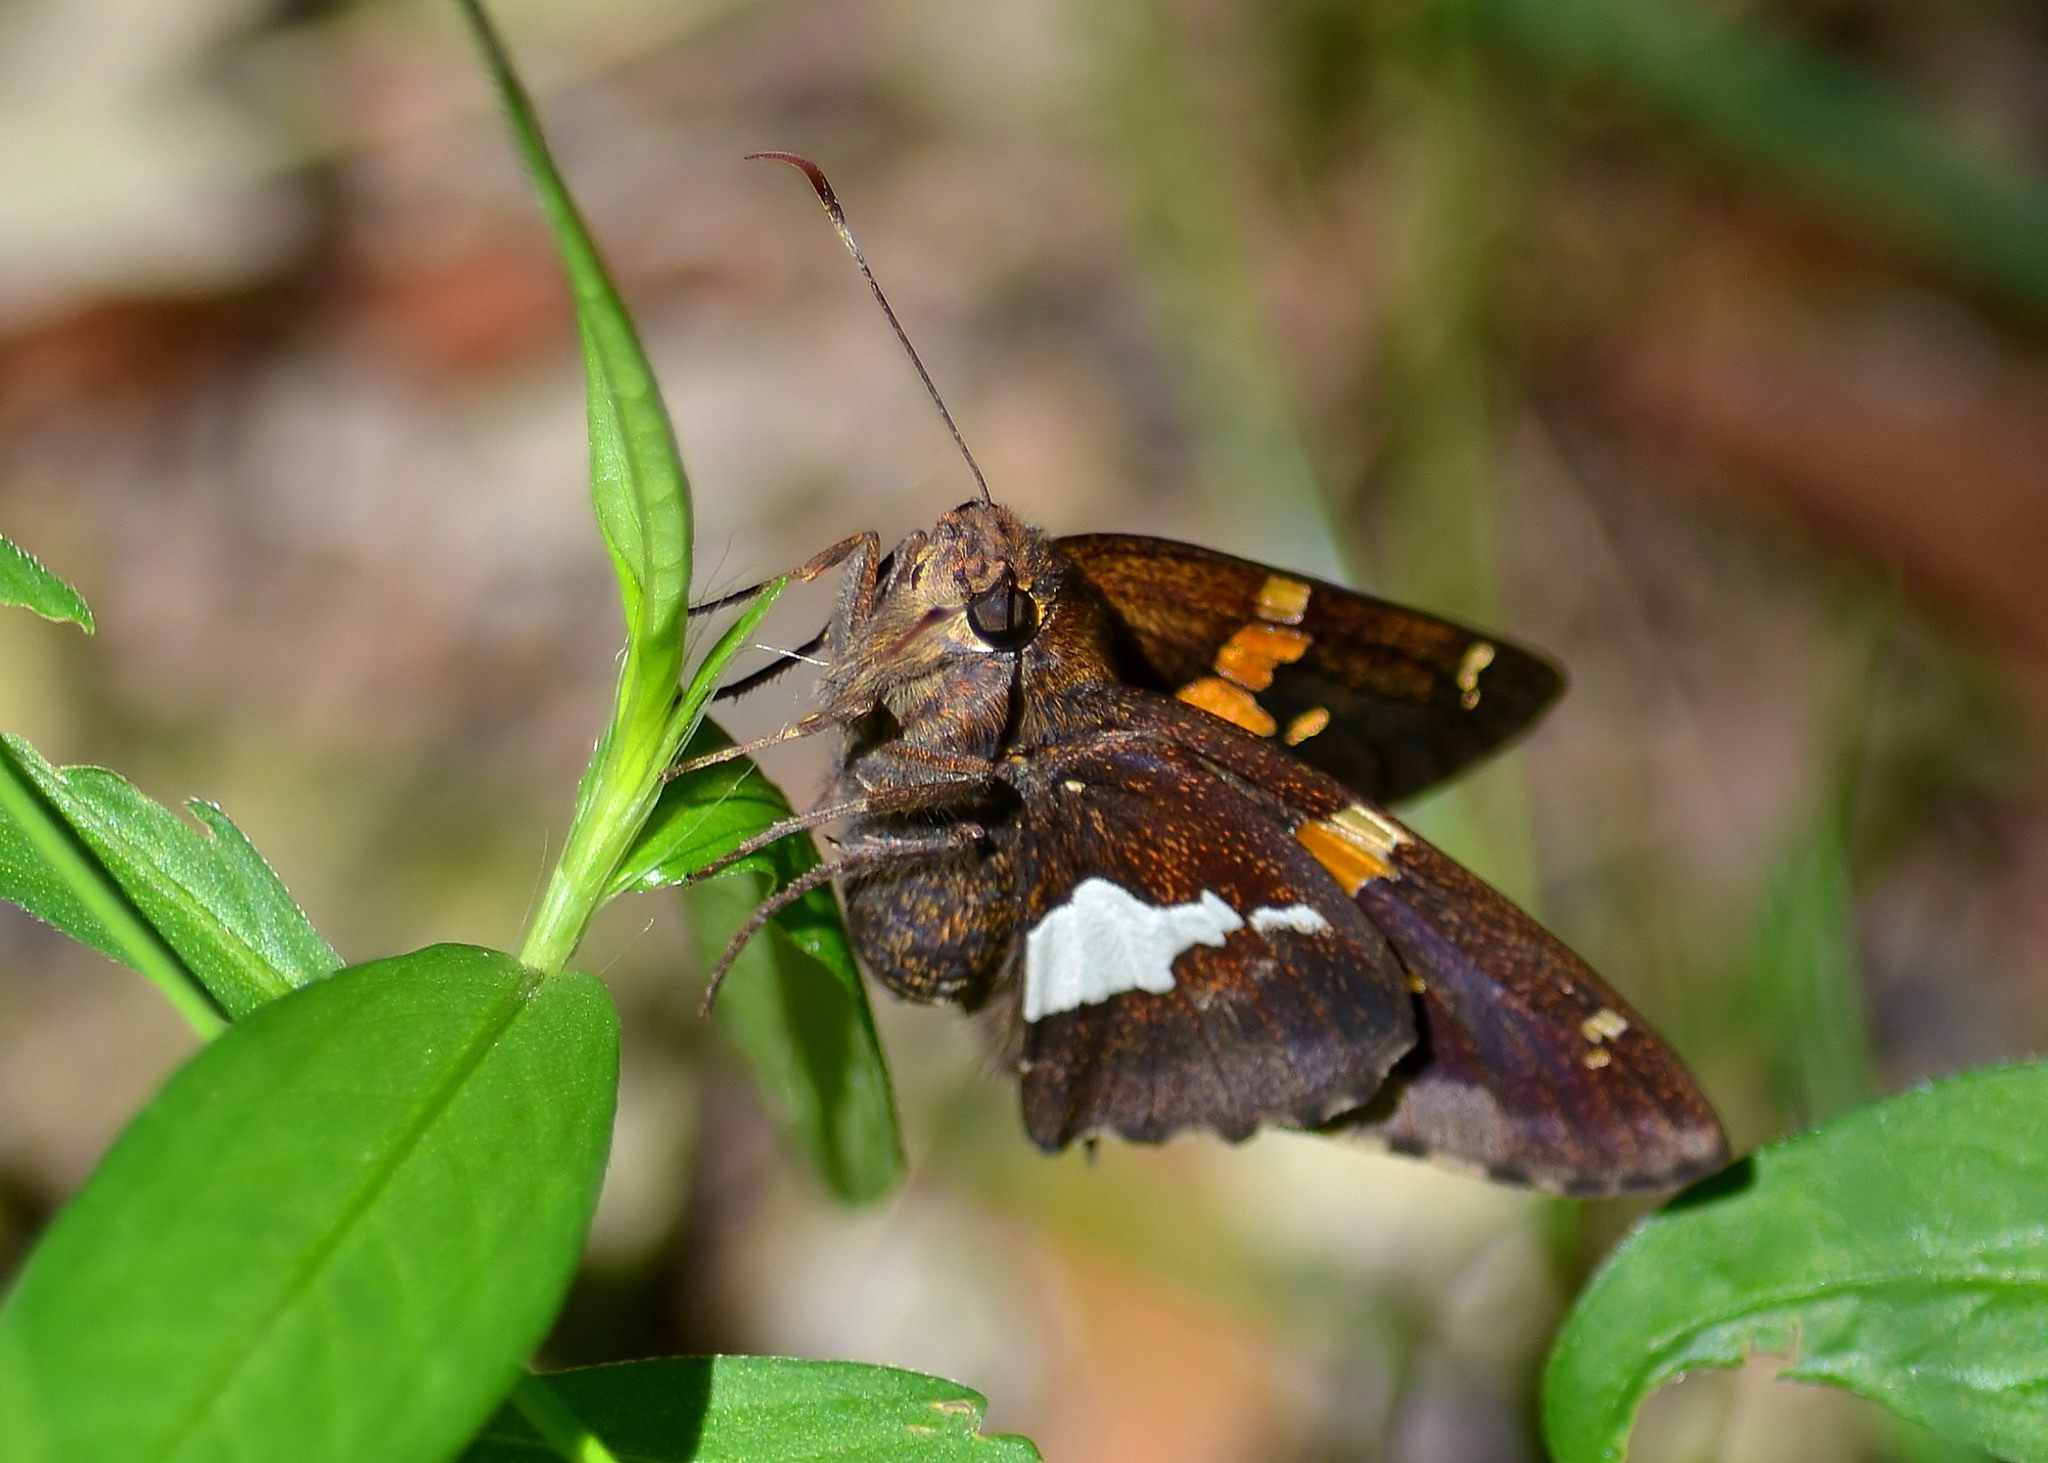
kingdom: Animalia
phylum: Arthropoda
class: Insecta
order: Lepidoptera
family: Hesperiidae
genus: Epargyreus
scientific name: Epargyreus clarus
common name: Silver-spotted skipper
